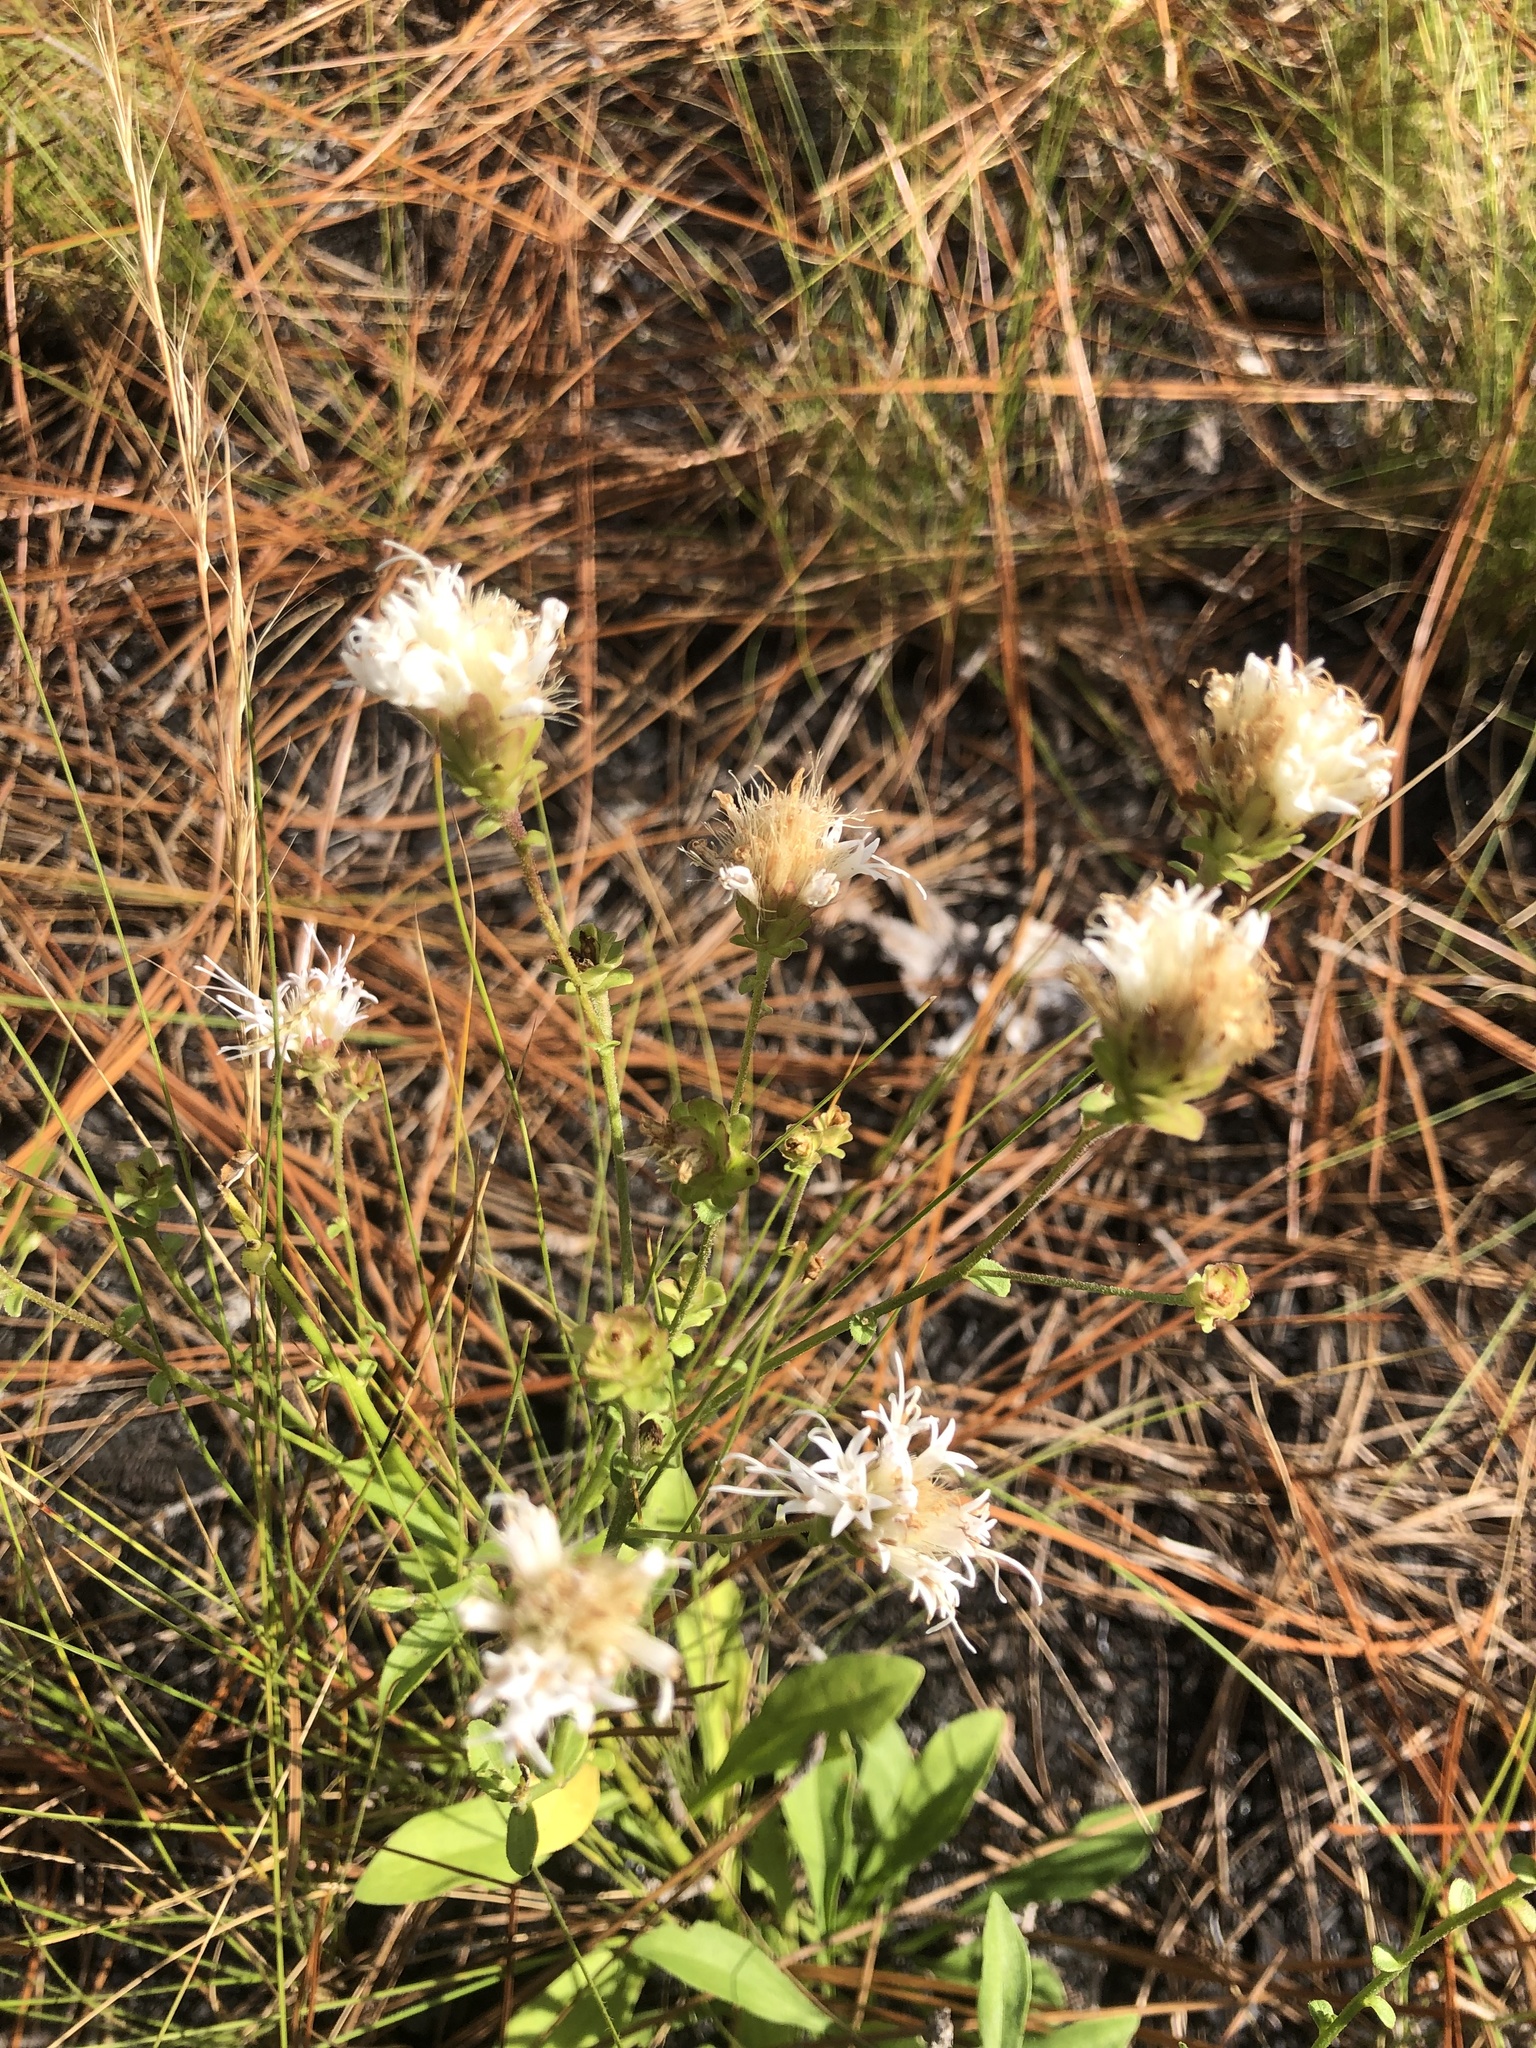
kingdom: Plantae
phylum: Tracheophyta
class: Magnoliopsida
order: Asterales
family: Asteraceae
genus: Carphephorus
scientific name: Carphephorus bellidifolius
